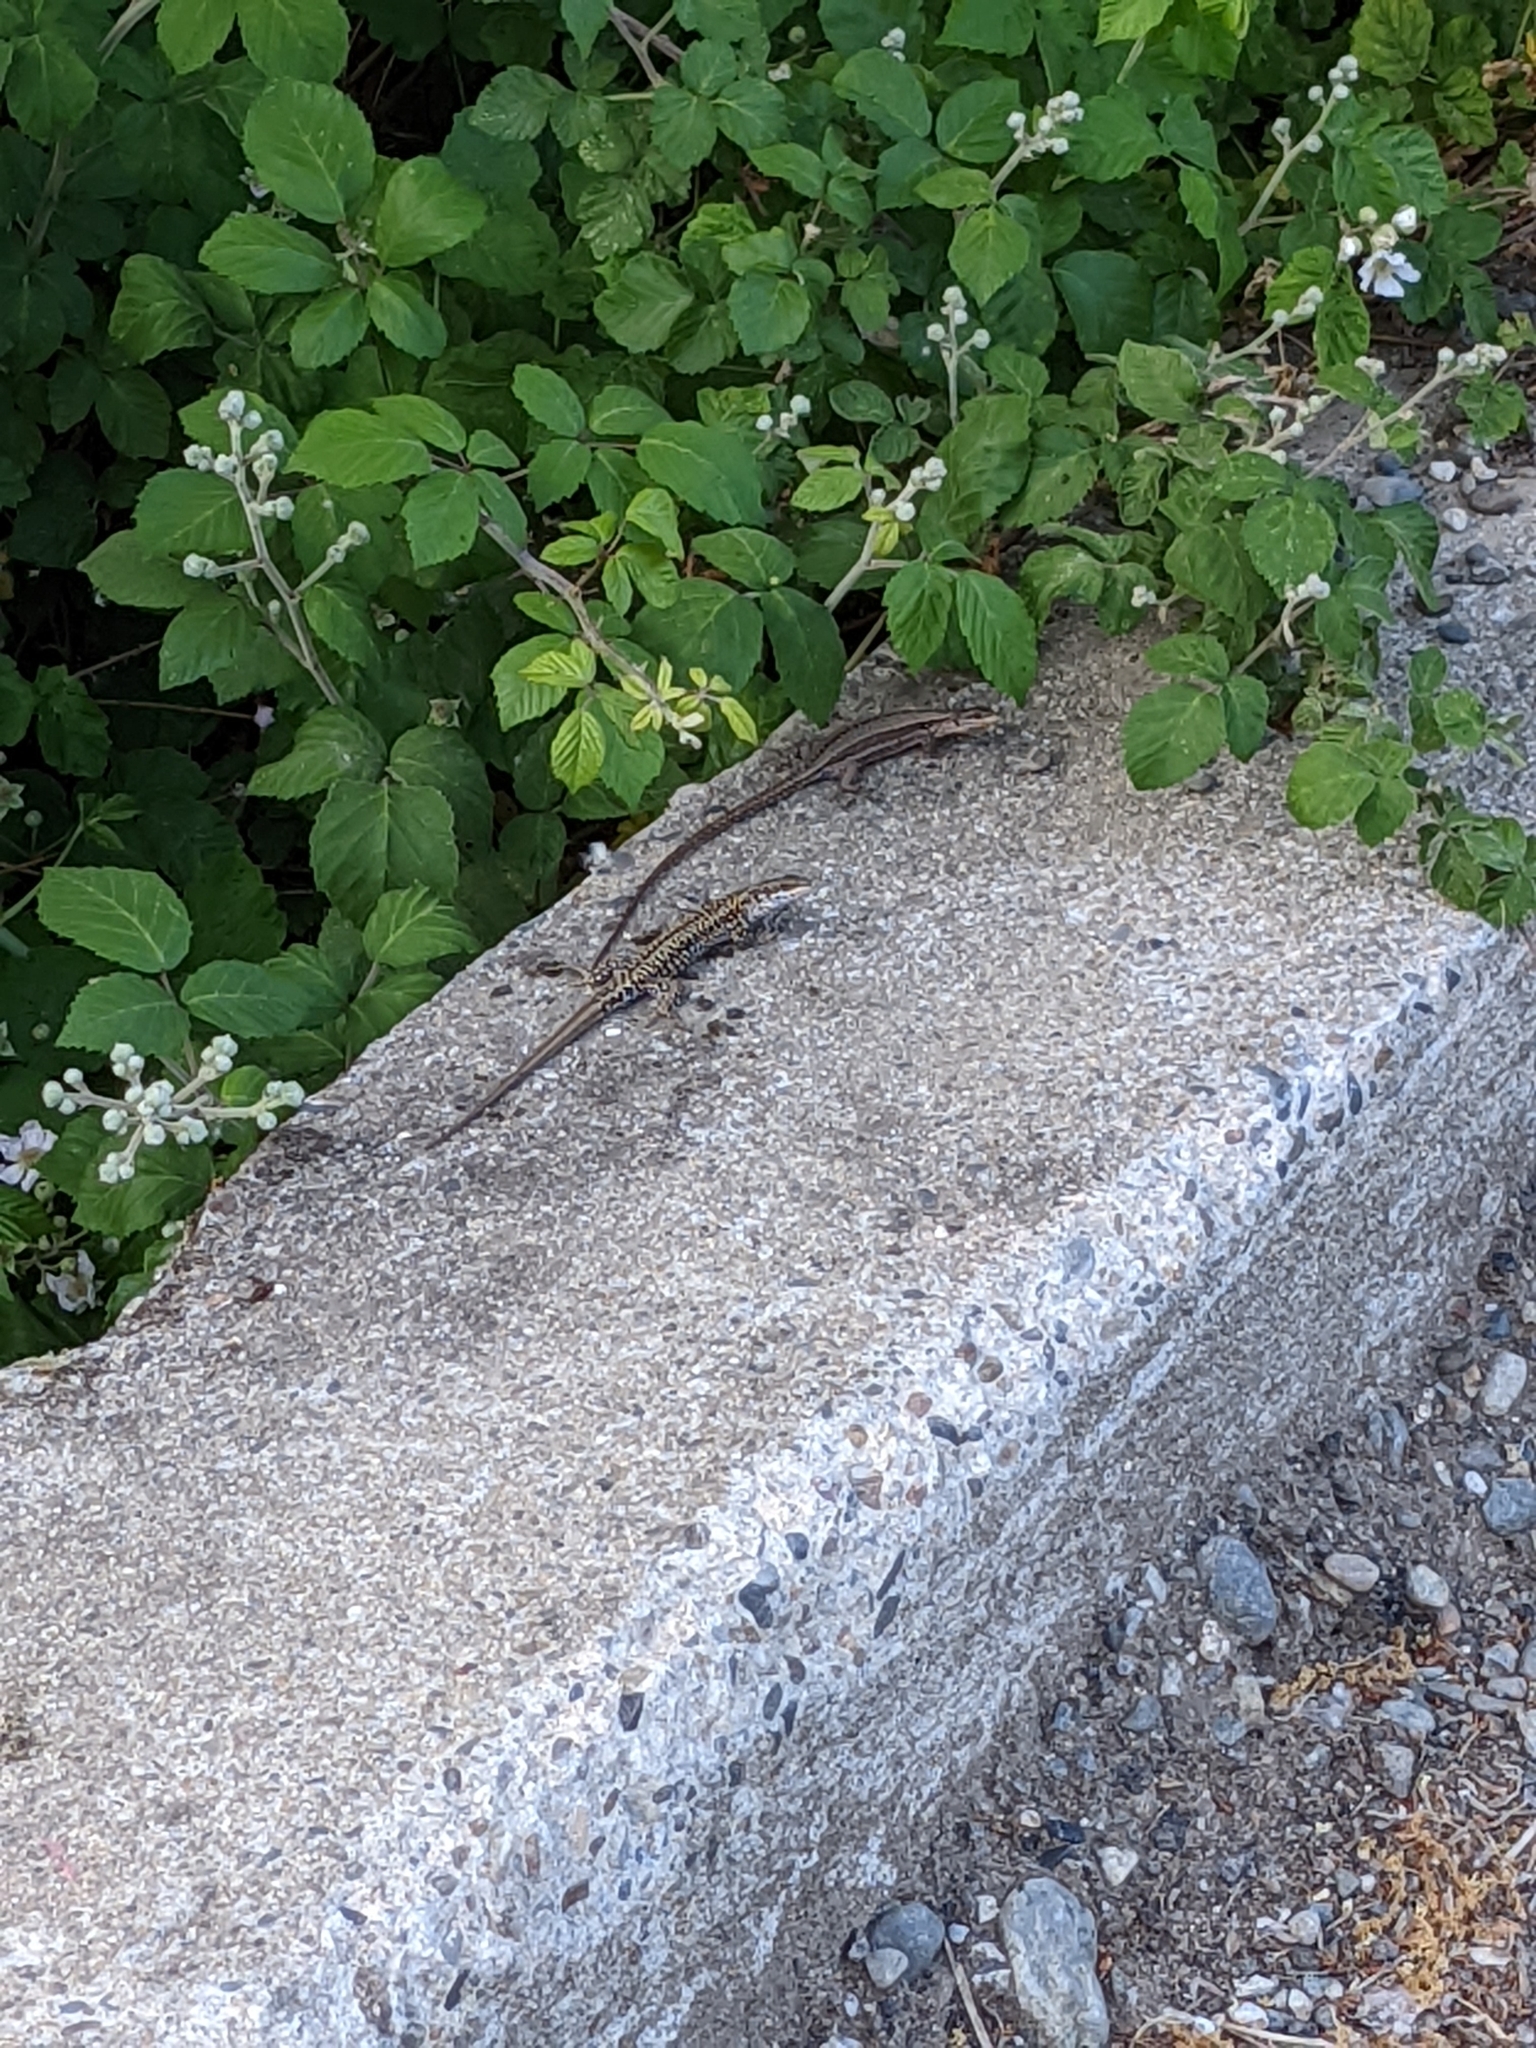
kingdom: Animalia
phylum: Chordata
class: Squamata
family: Lacertidae
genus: Podarcis
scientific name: Podarcis muralis
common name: Common wall lizard
